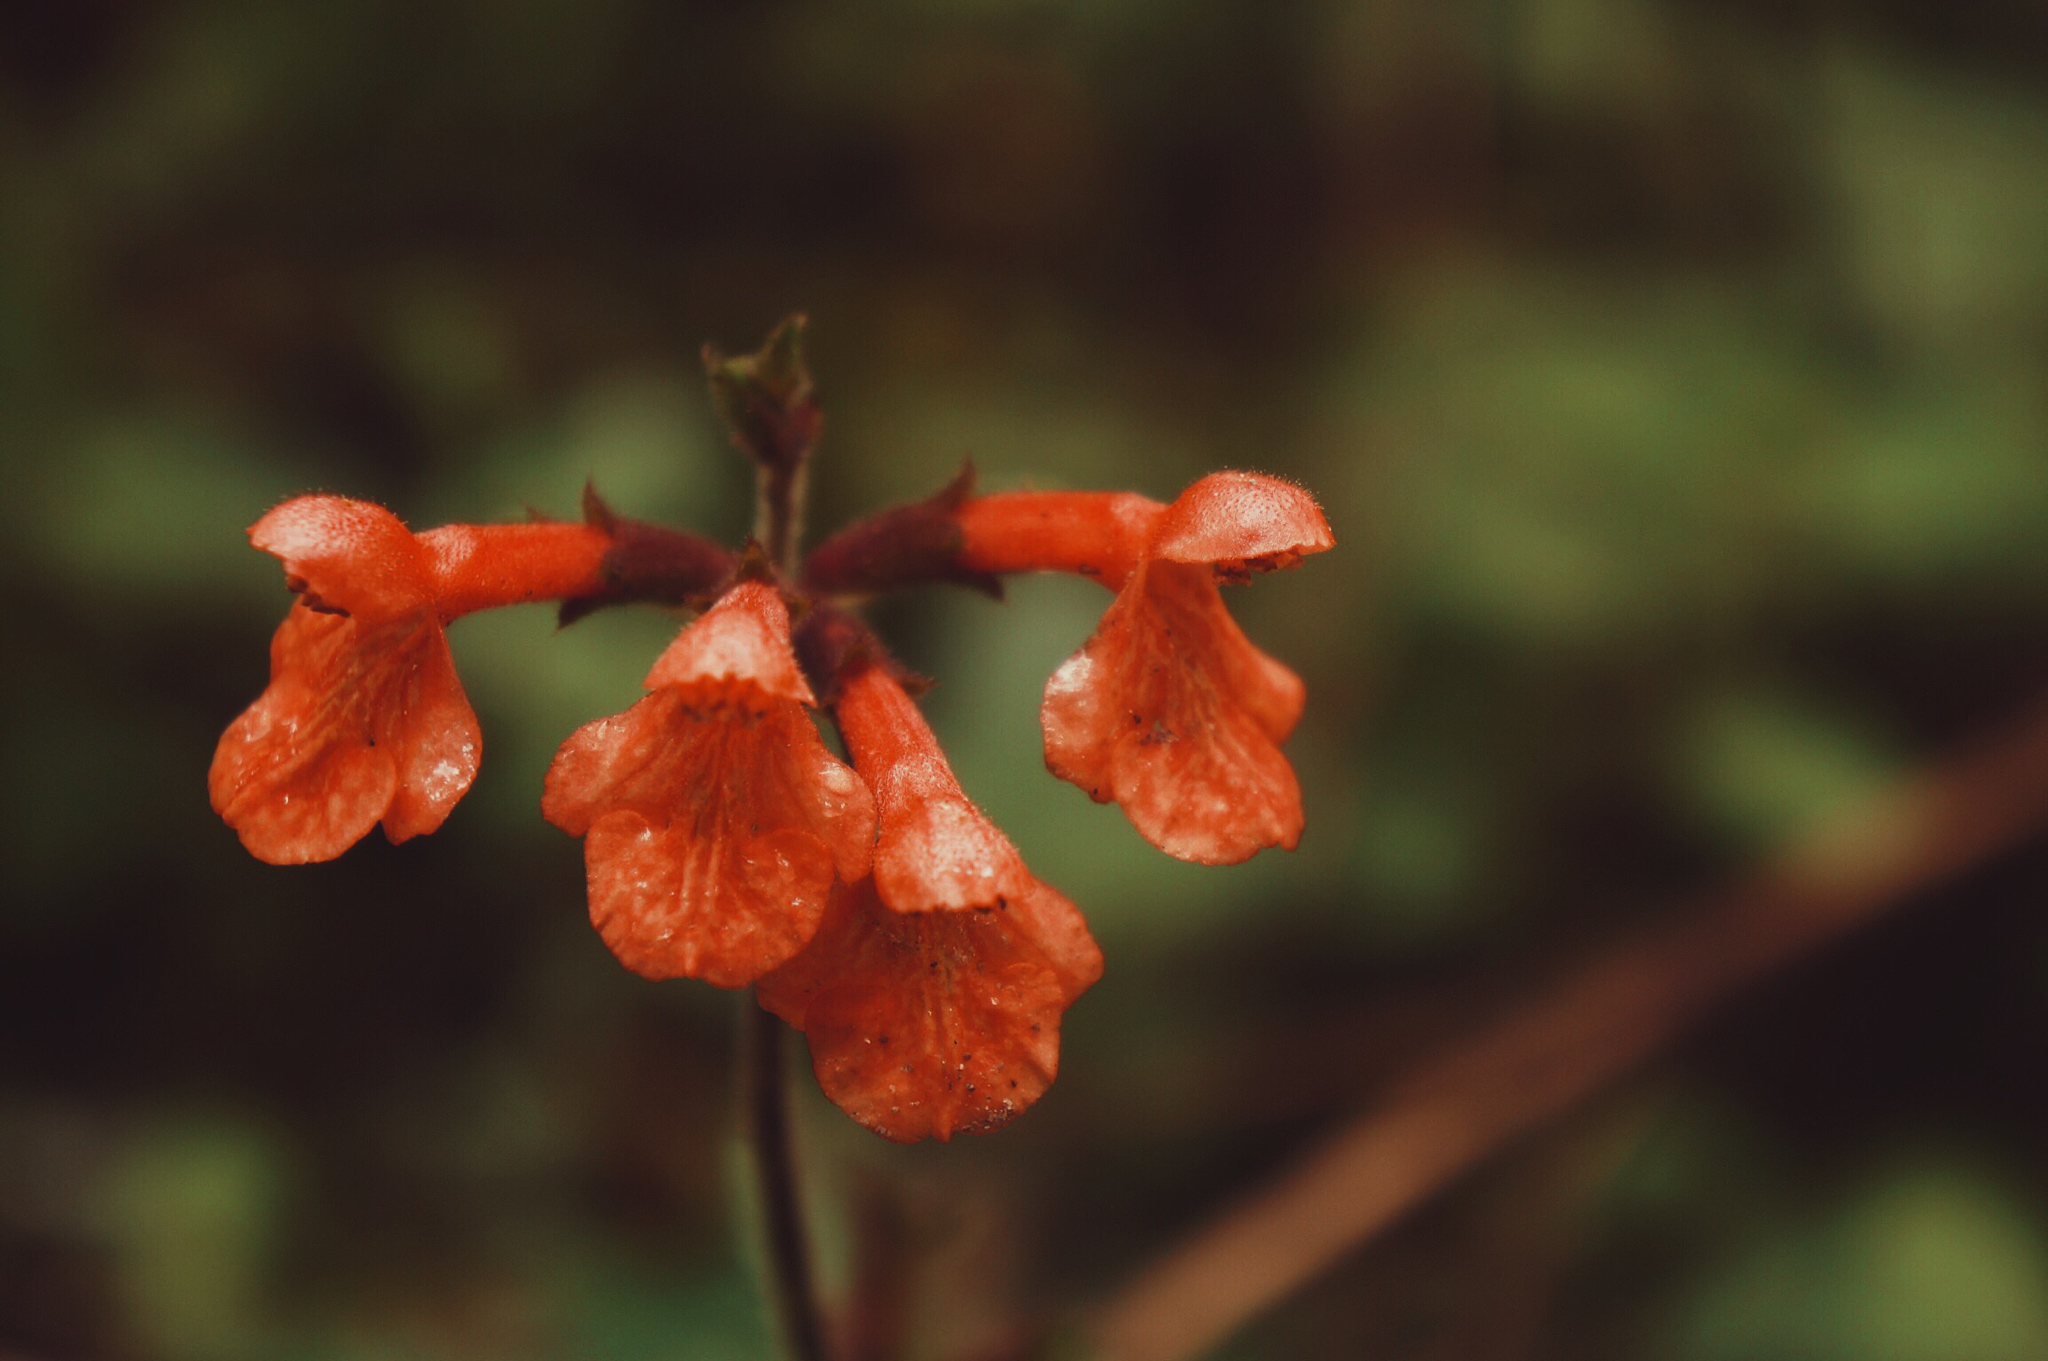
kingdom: Plantae
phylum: Tracheophyta
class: Magnoliopsida
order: Lamiales
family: Lamiaceae
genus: Stachys
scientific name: Stachys coccinea
